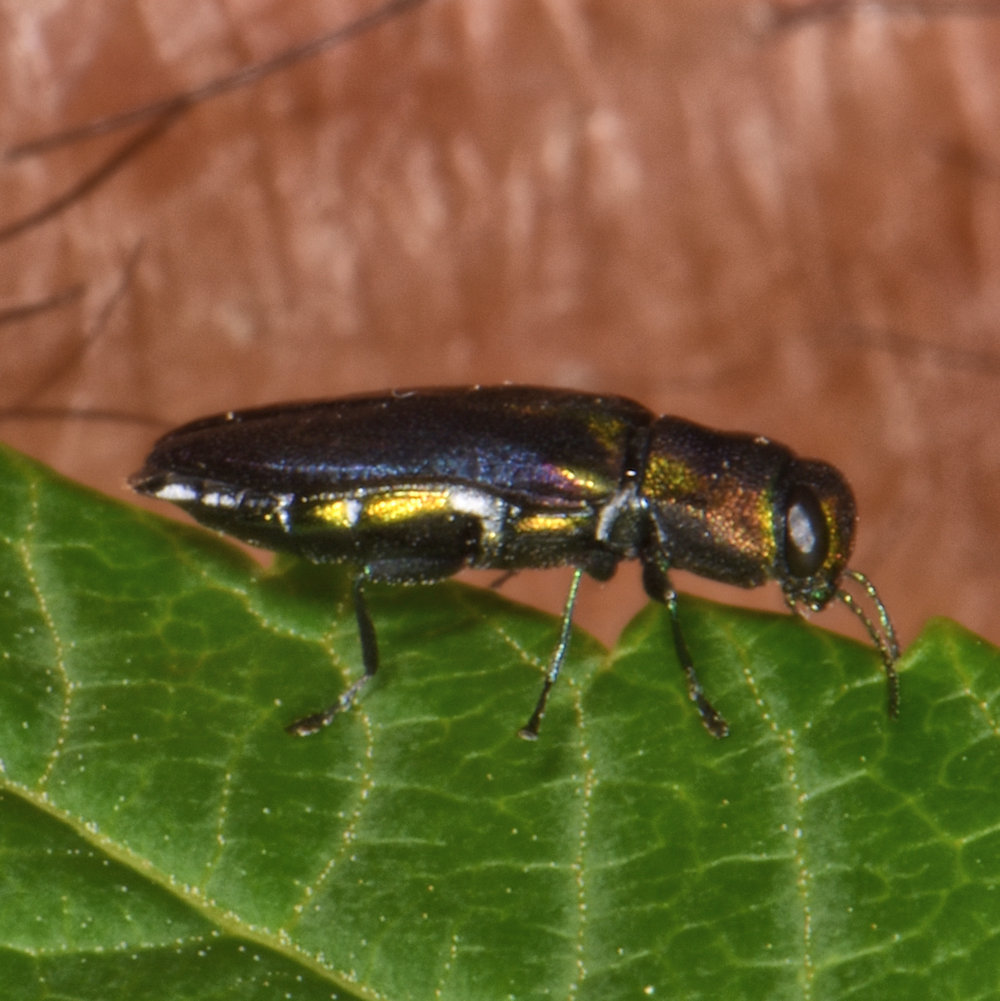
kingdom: Animalia
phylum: Arthropoda
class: Insecta
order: Coleoptera
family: Buprestidae
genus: Anthaxia
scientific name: Anthaxia quercata
